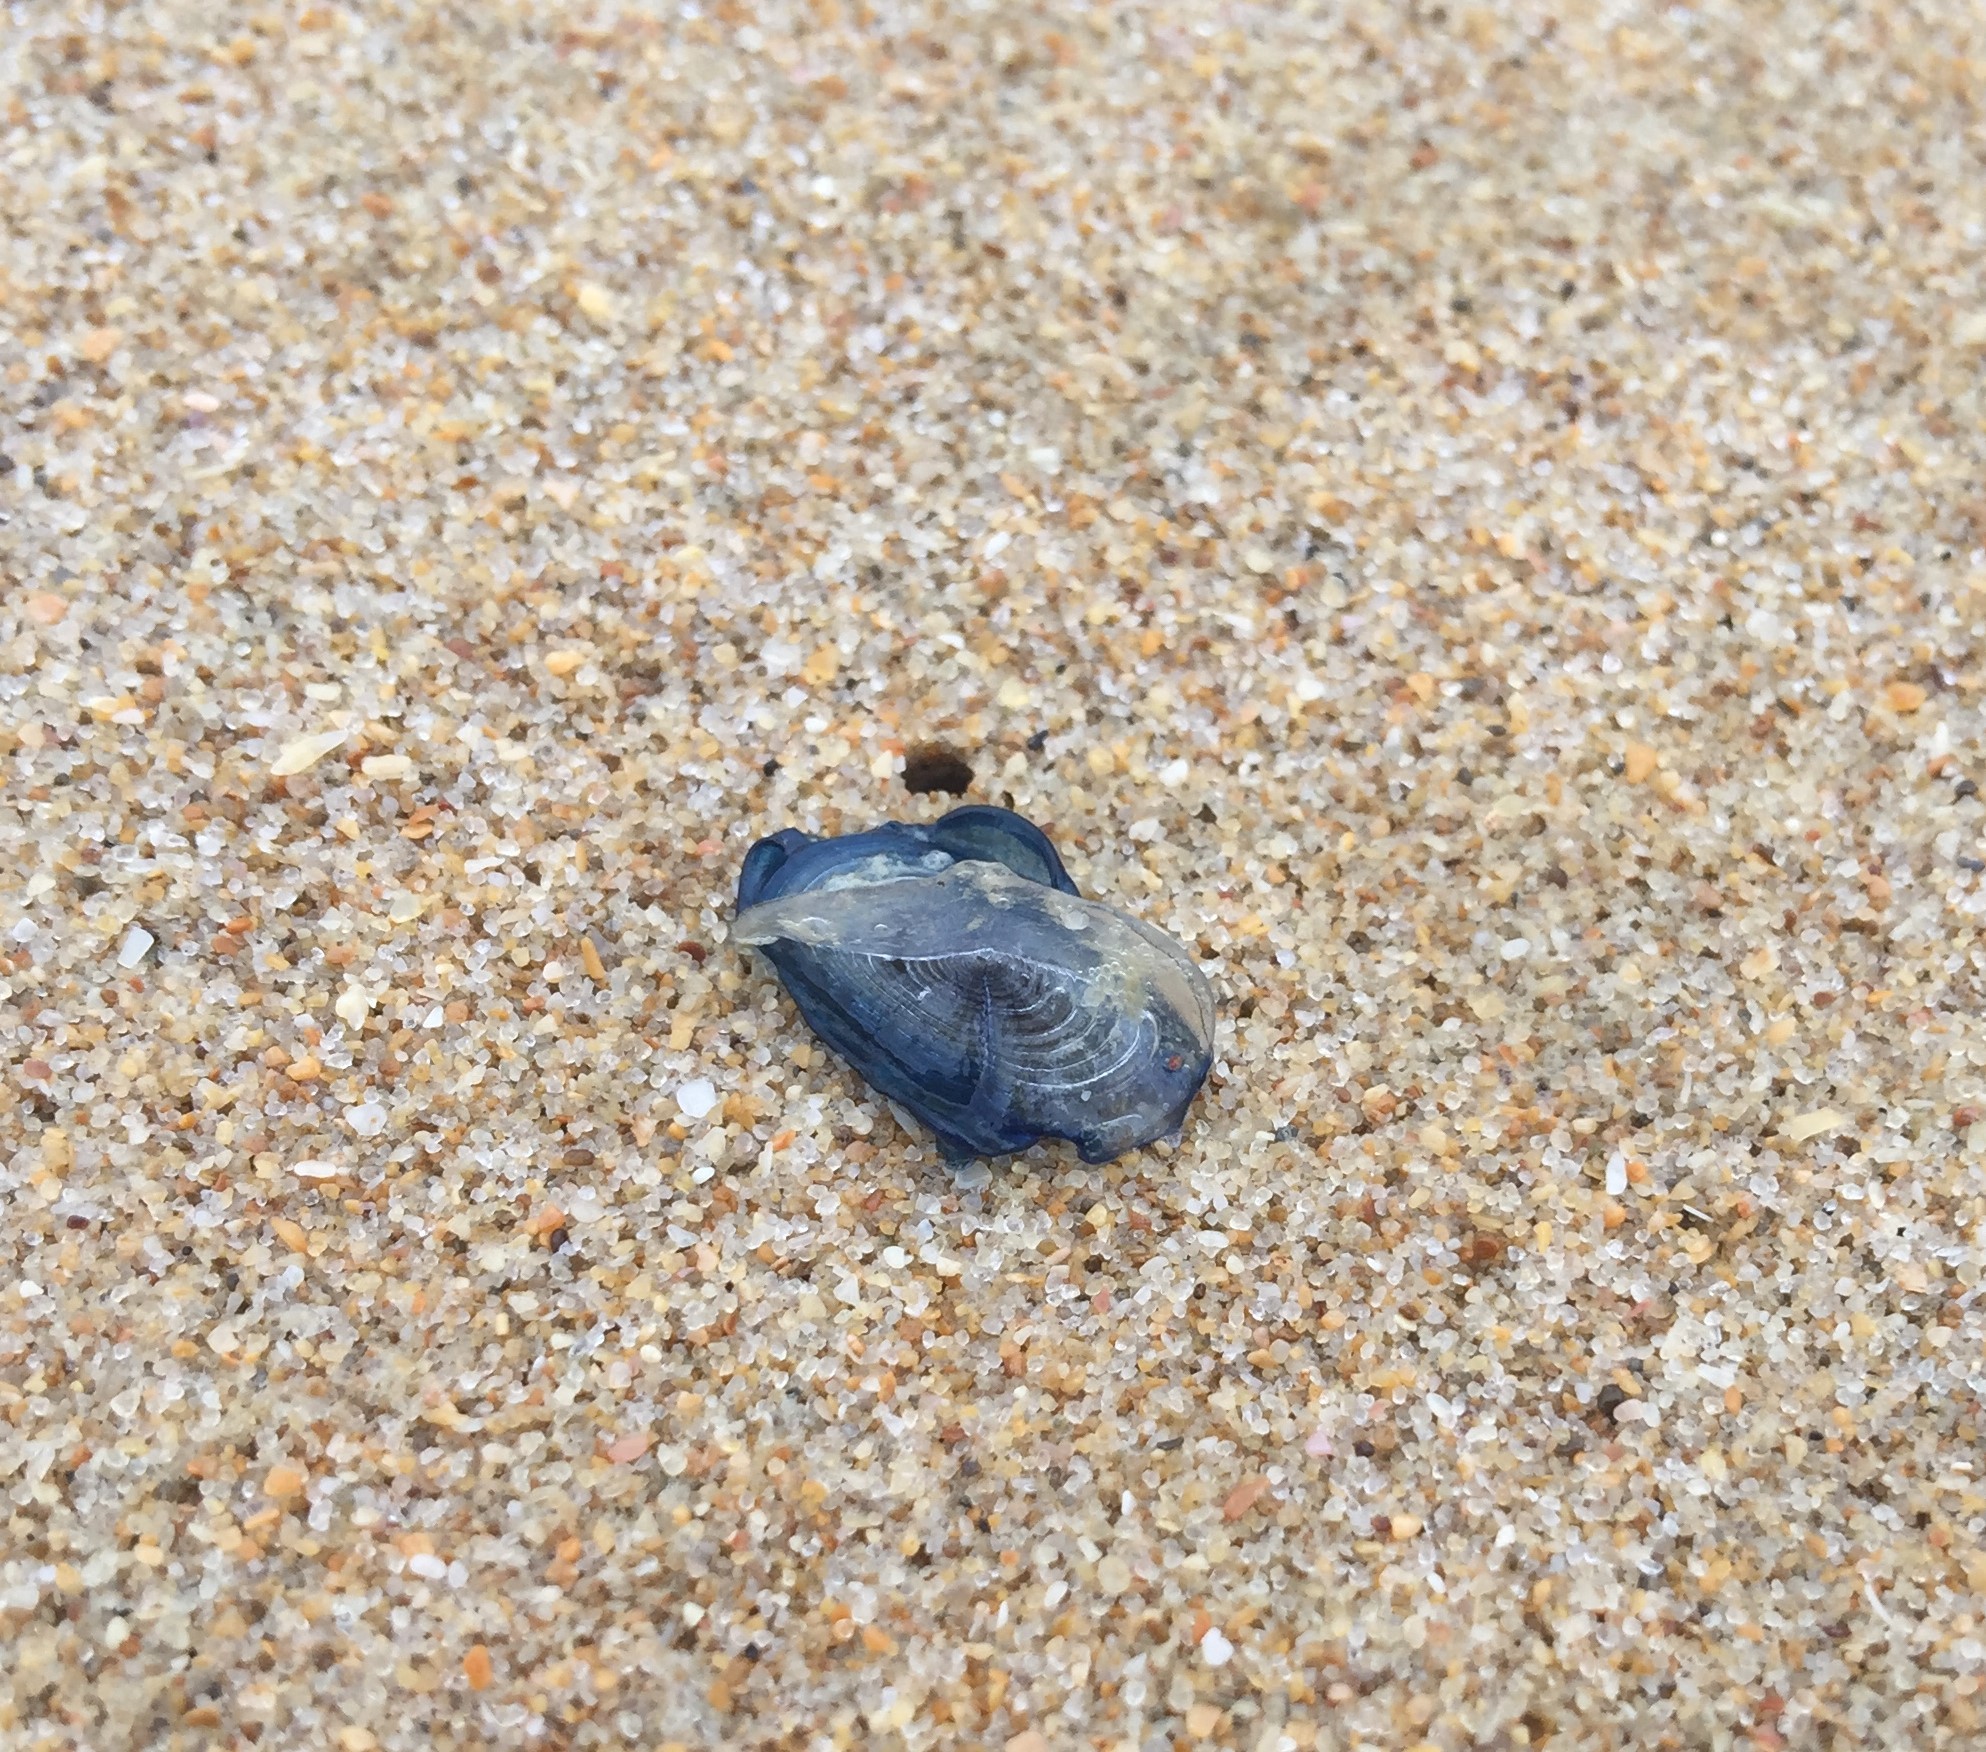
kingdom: Animalia
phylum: Cnidaria
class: Hydrozoa
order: Anthoathecata
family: Porpitidae
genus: Velella
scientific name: Velella velella
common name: By-the-wind-sailor
